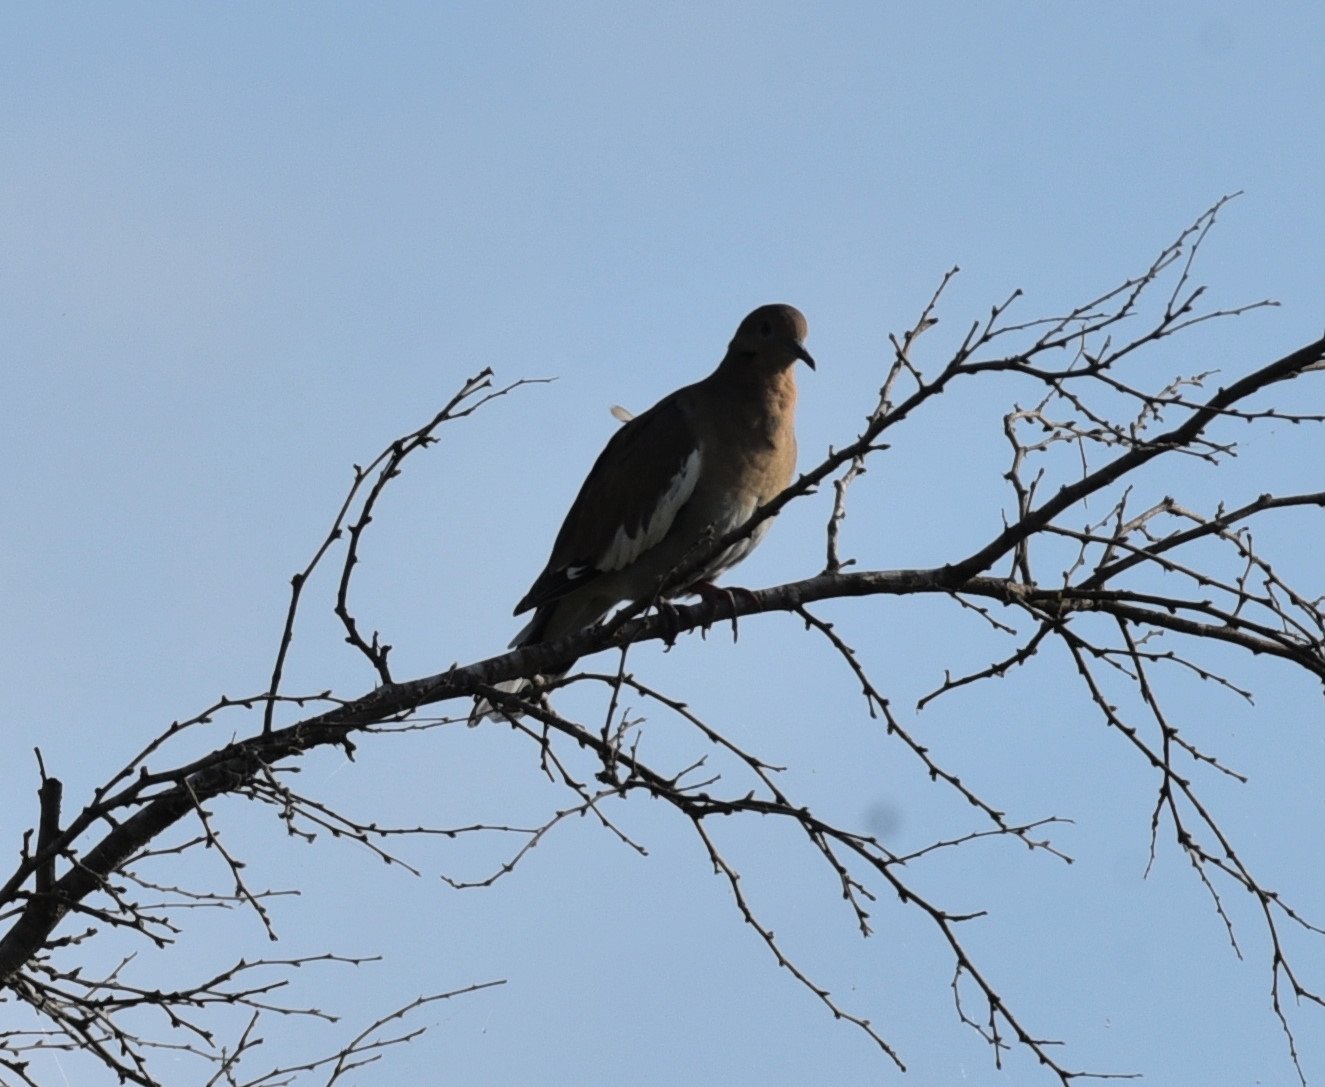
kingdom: Animalia
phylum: Chordata
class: Aves
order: Columbiformes
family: Columbidae
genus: Zenaida
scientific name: Zenaida asiatica
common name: White-winged dove
